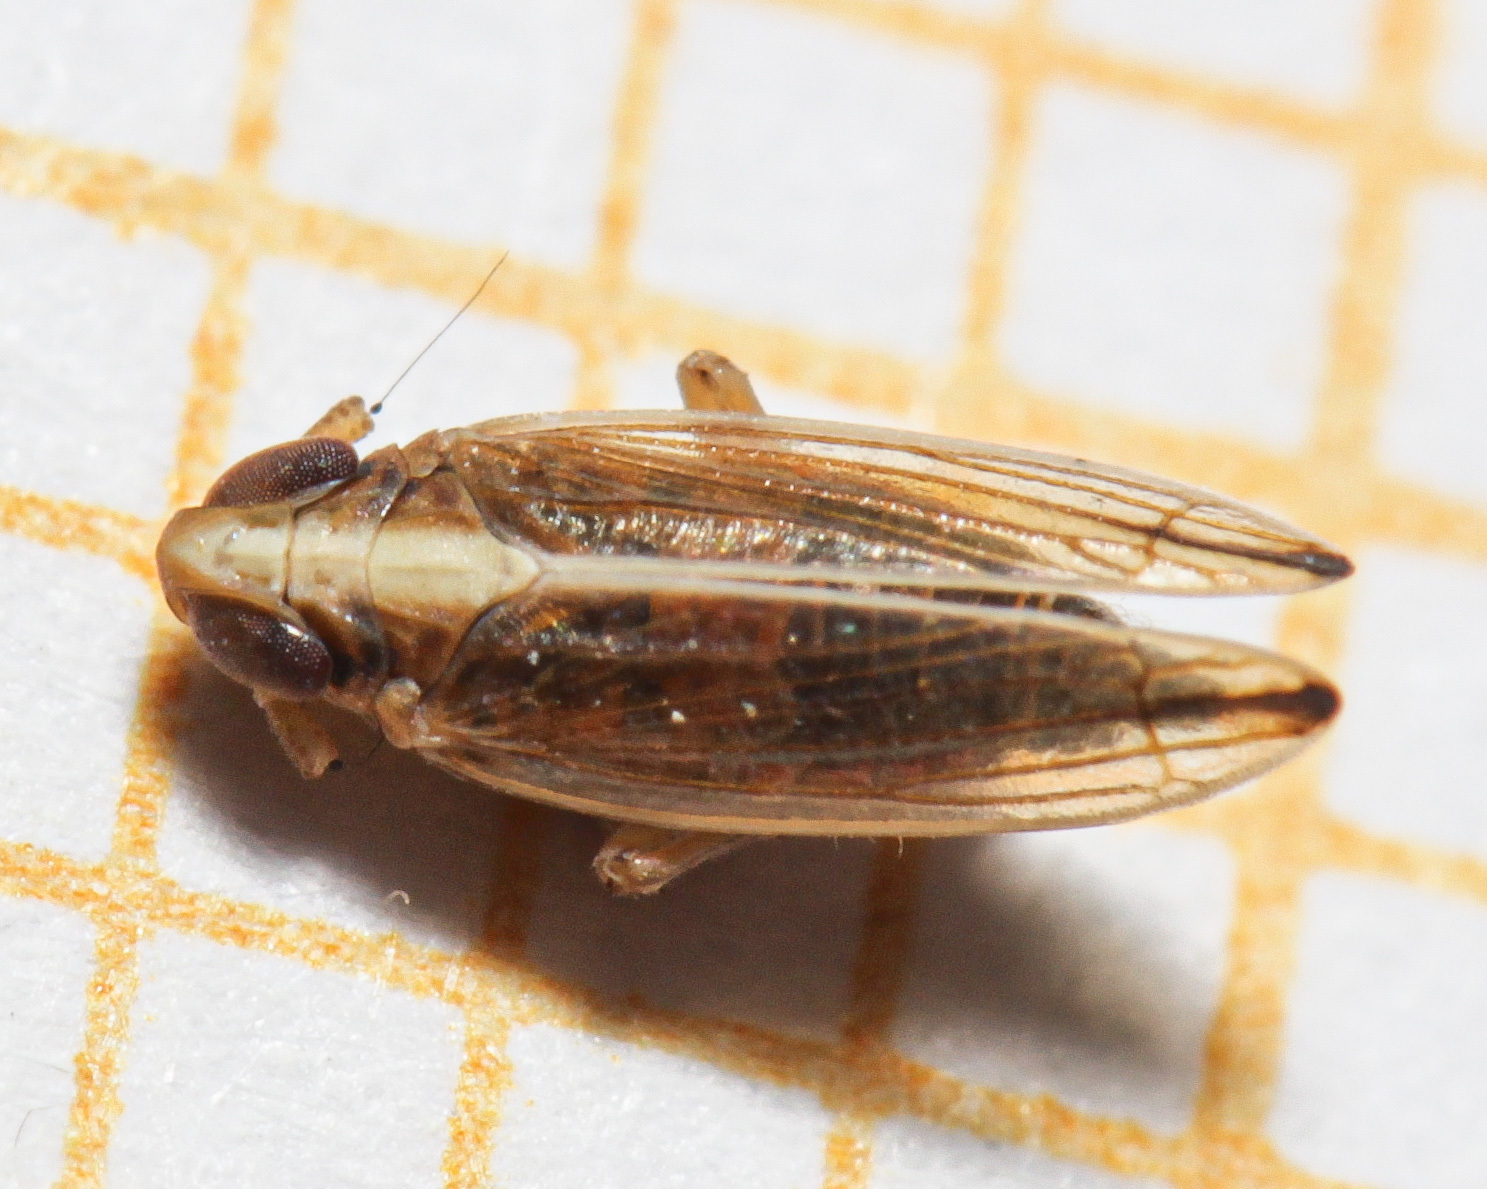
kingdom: Animalia
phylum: Arthropoda
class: Insecta
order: Hemiptera
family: Delphacidae
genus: Kelisia
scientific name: Kelisia praecox
